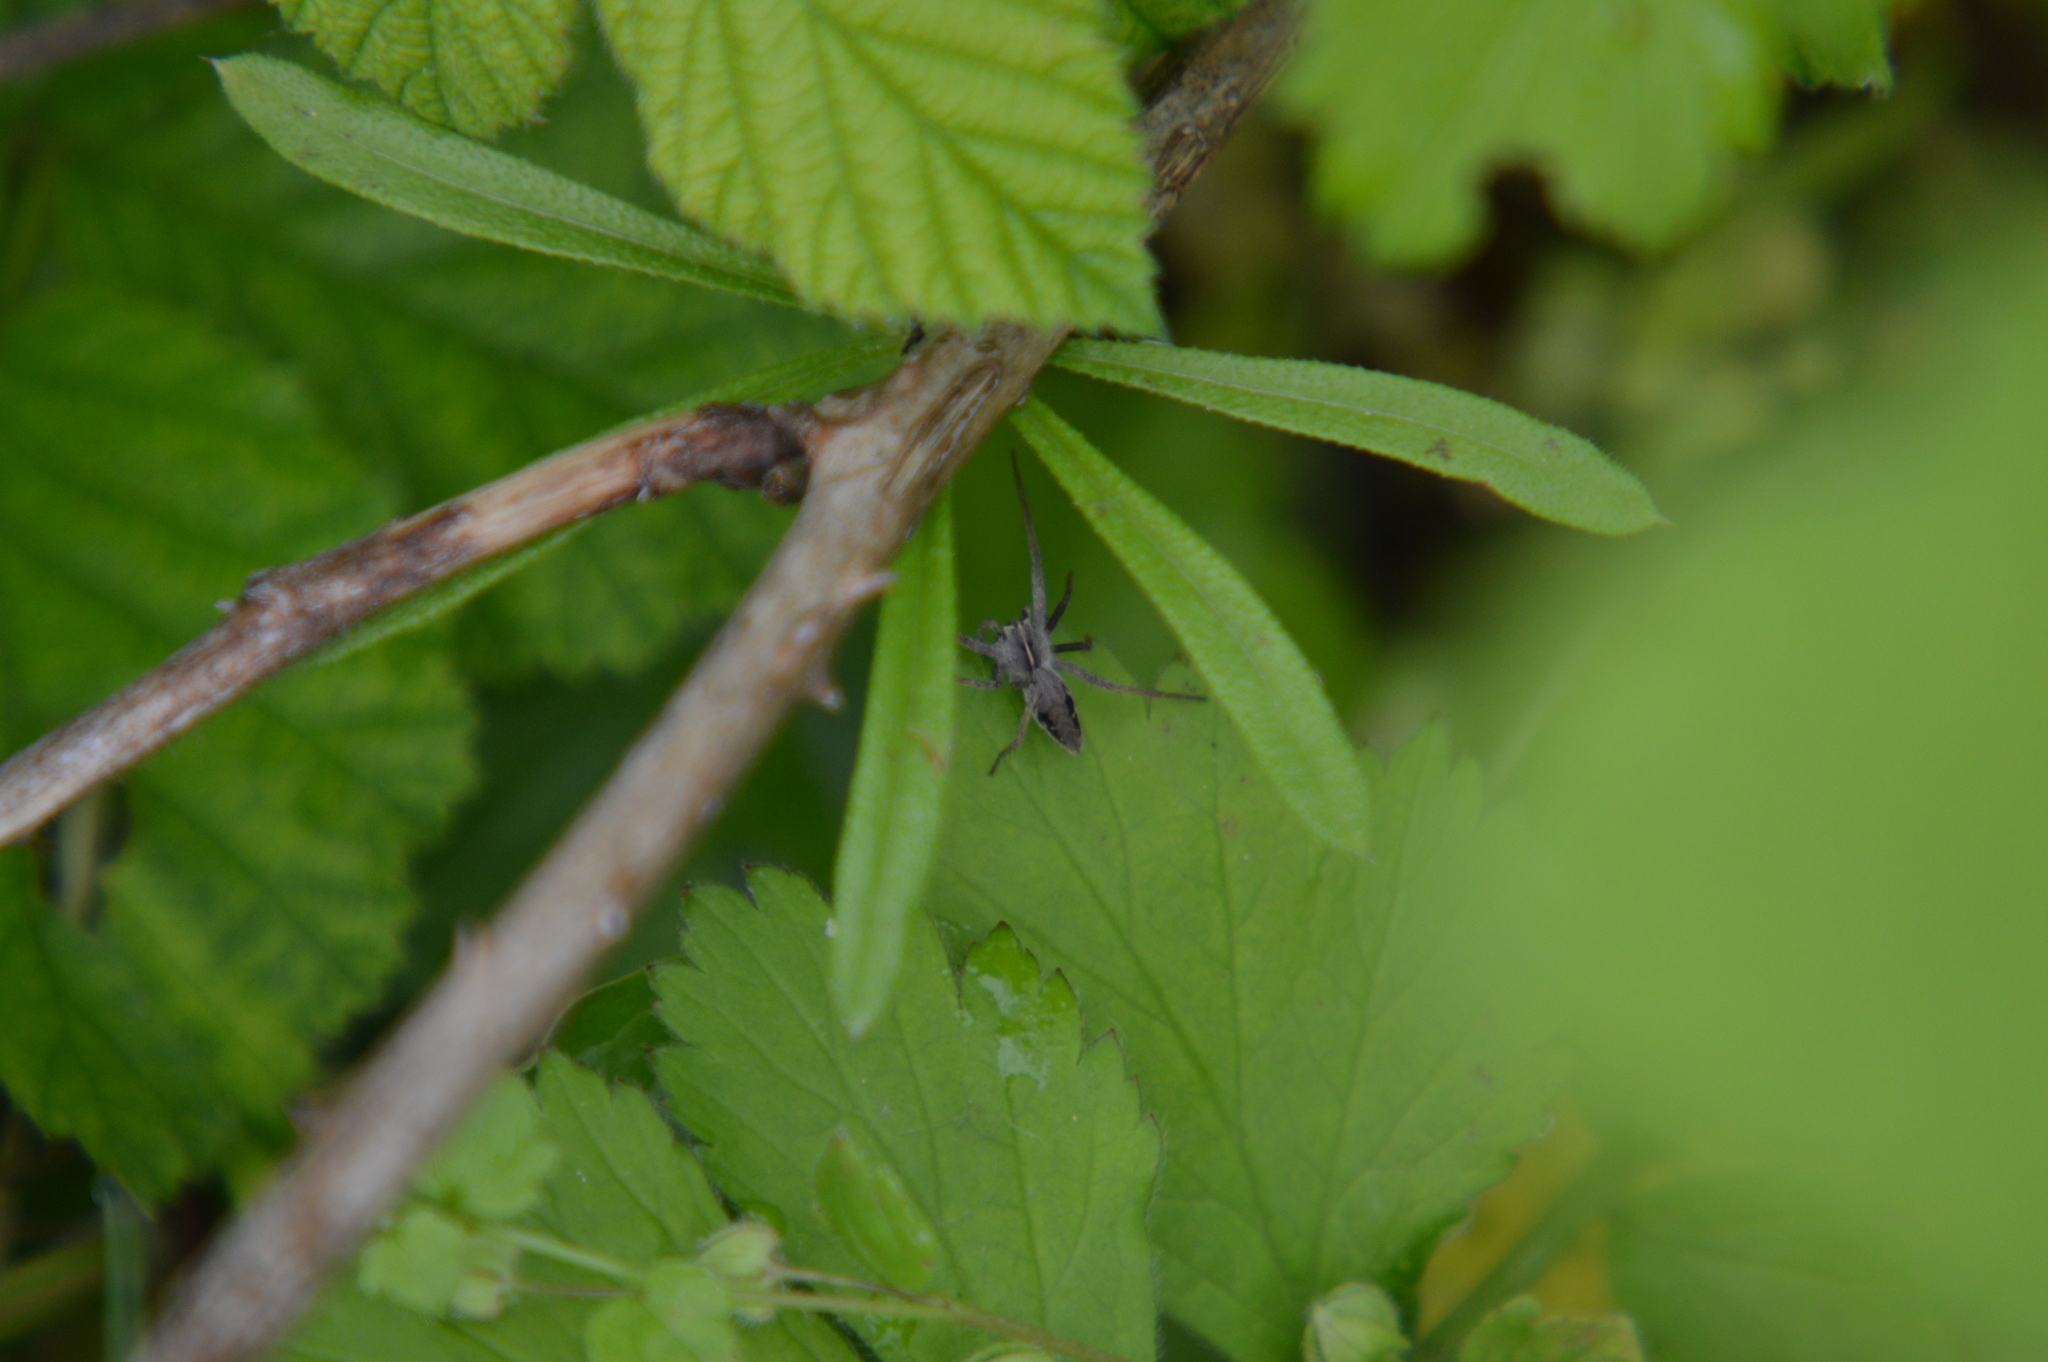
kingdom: Animalia
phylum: Arthropoda
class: Arachnida
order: Araneae
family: Pisauridae
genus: Pisaura
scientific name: Pisaura mirabilis
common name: Tent spider
